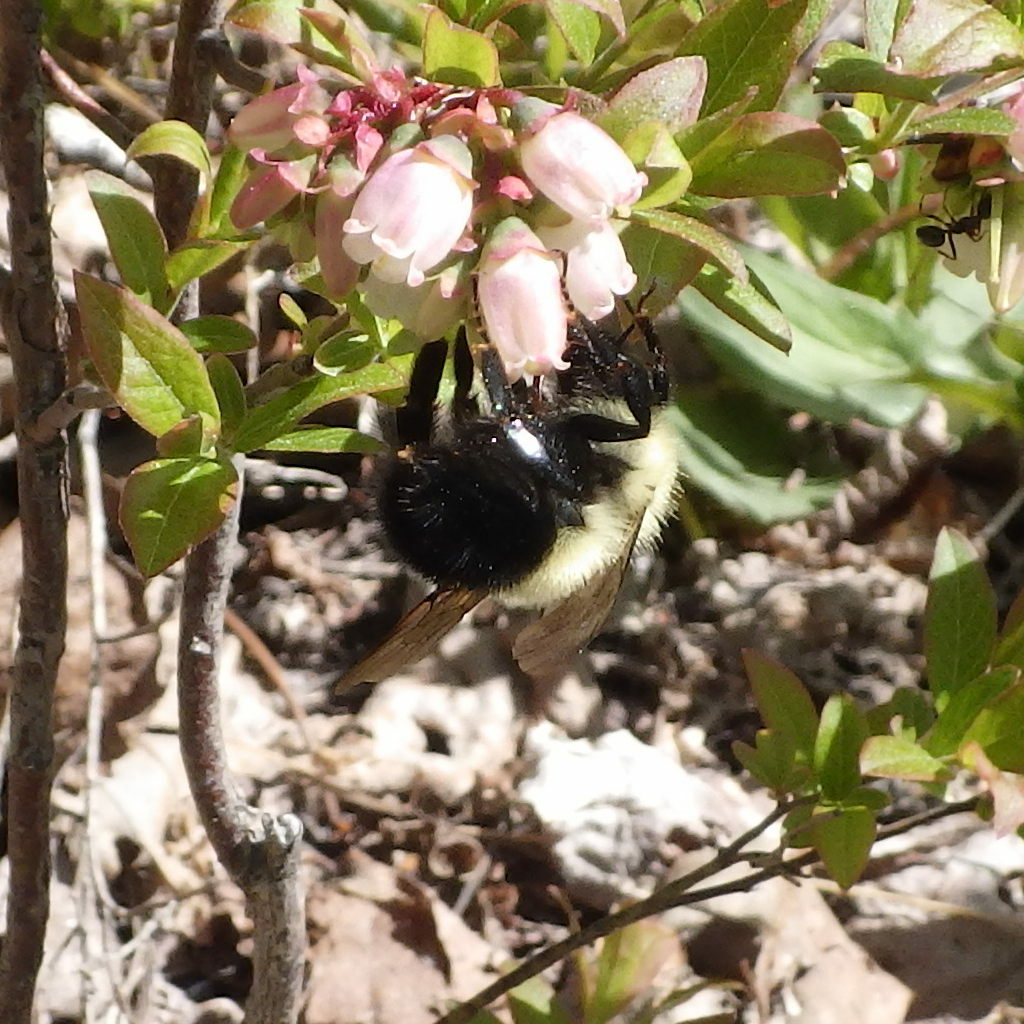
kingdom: Animalia
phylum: Arthropoda
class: Insecta
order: Hymenoptera
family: Apidae
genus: Pyrobombus
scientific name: Pyrobombus
